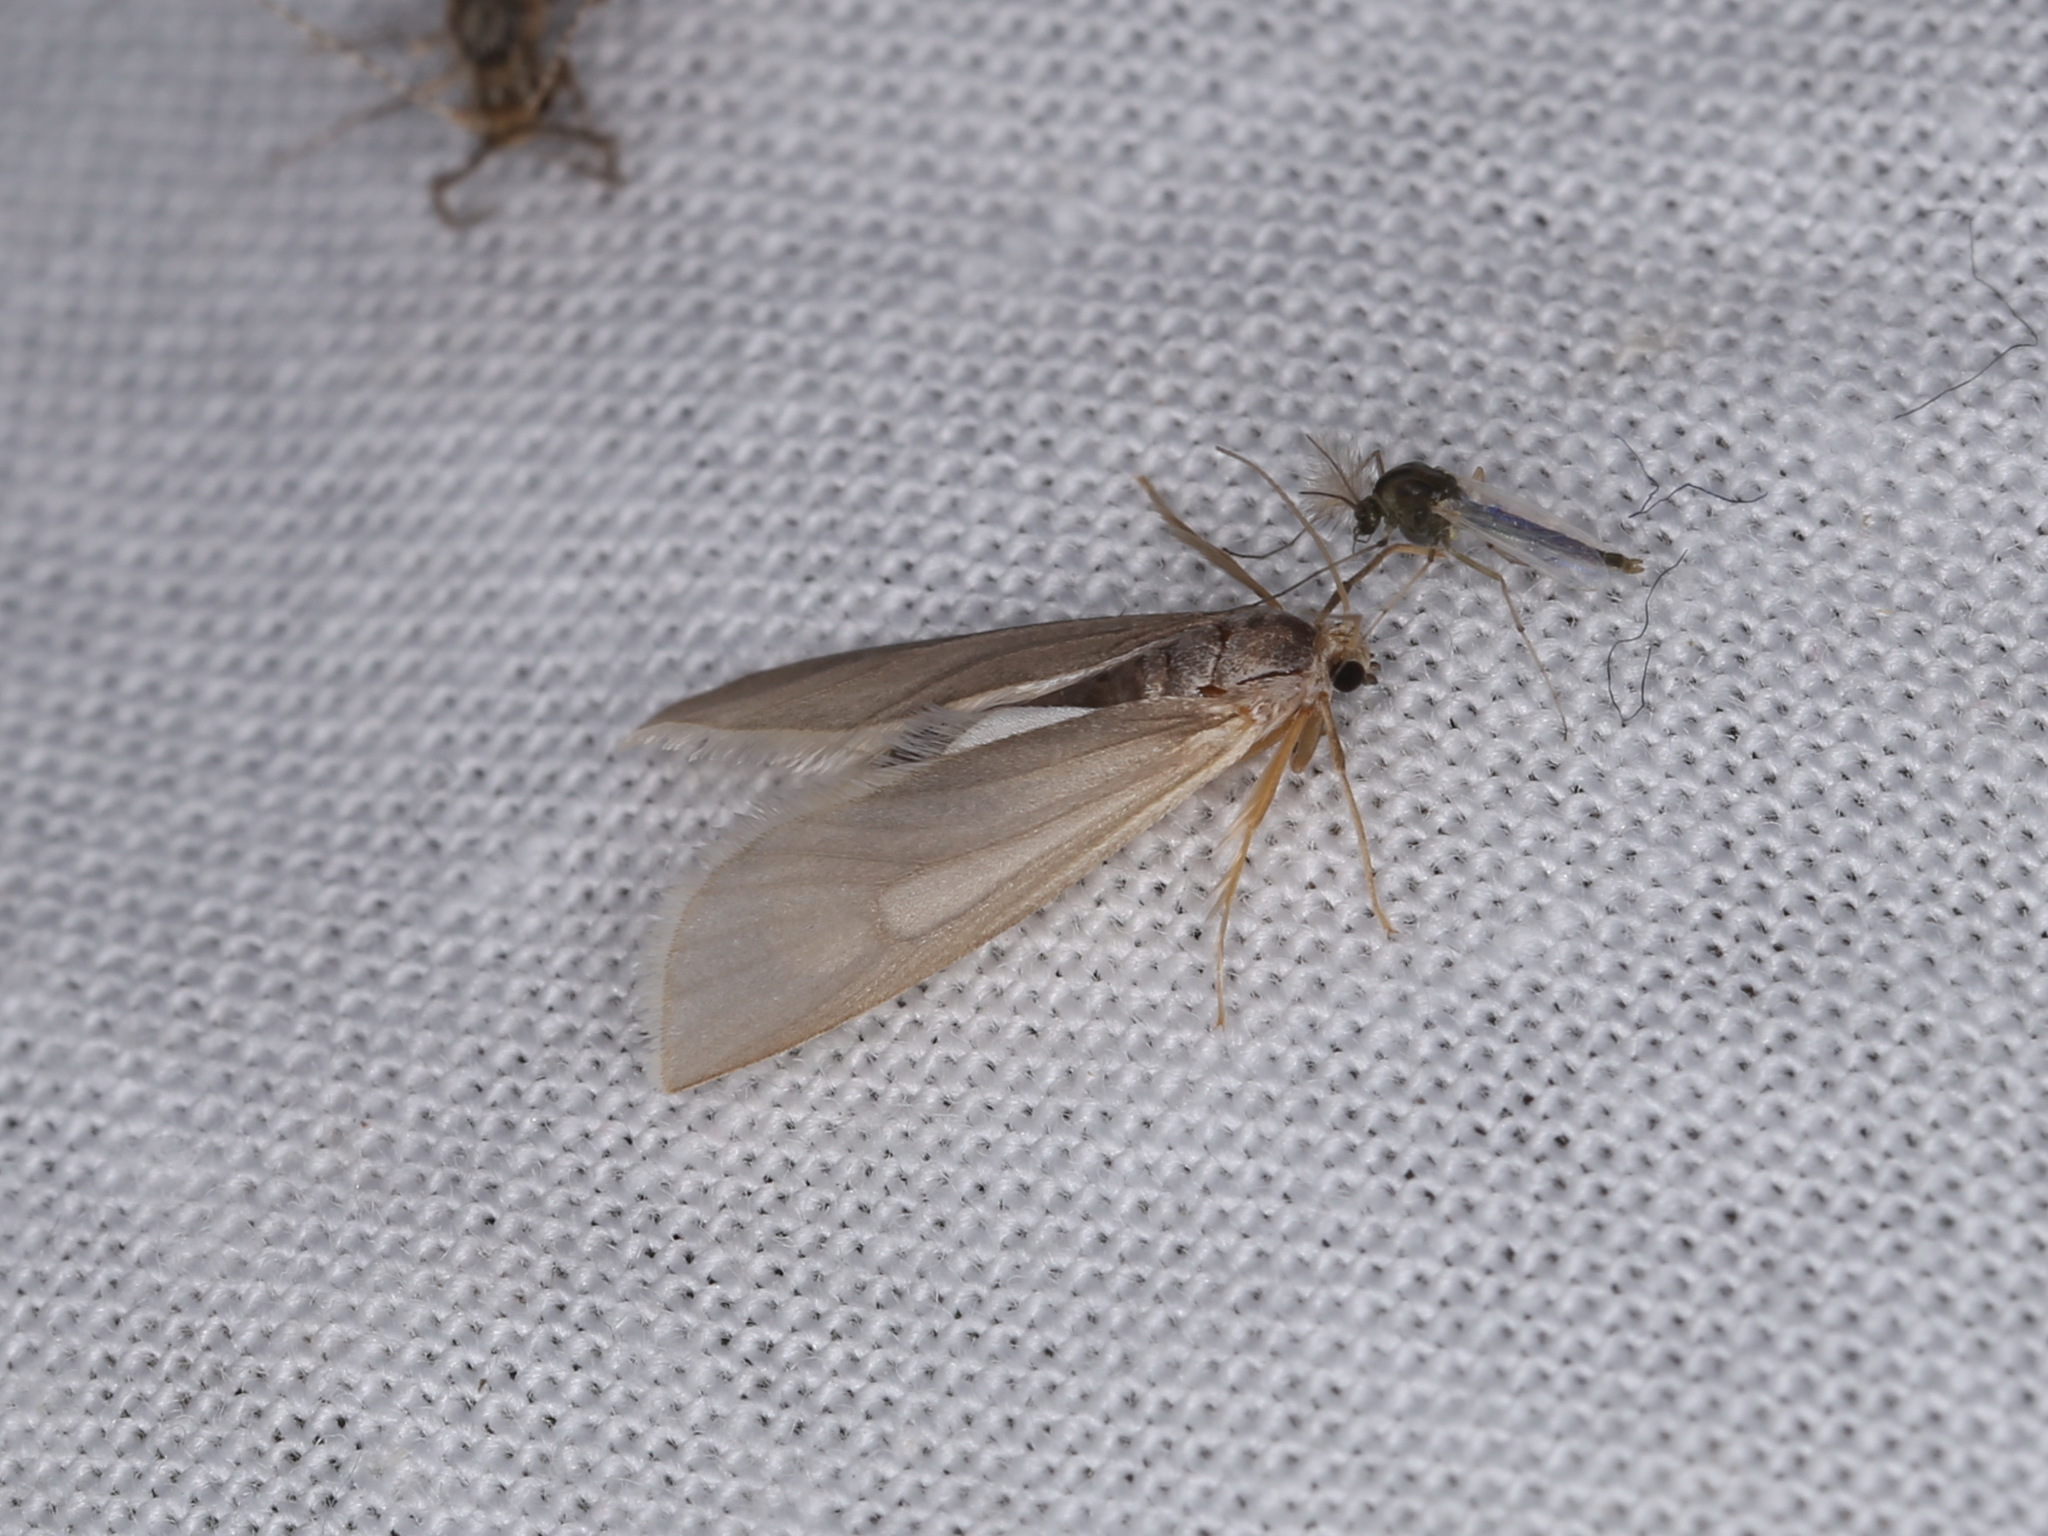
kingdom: Animalia
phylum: Arthropoda
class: Insecta
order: Lepidoptera
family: Crambidae
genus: Acentria
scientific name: Acentria ephemerella
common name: European water moth
